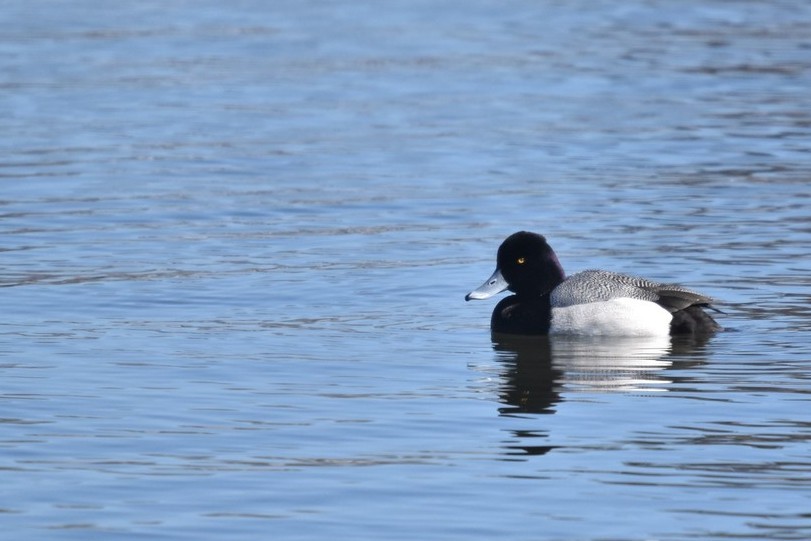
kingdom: Animalia
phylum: Chordata
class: Aves
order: Anseriformes
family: Anatidae
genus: Aythya
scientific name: Aythya affinis
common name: Lesser scaup
